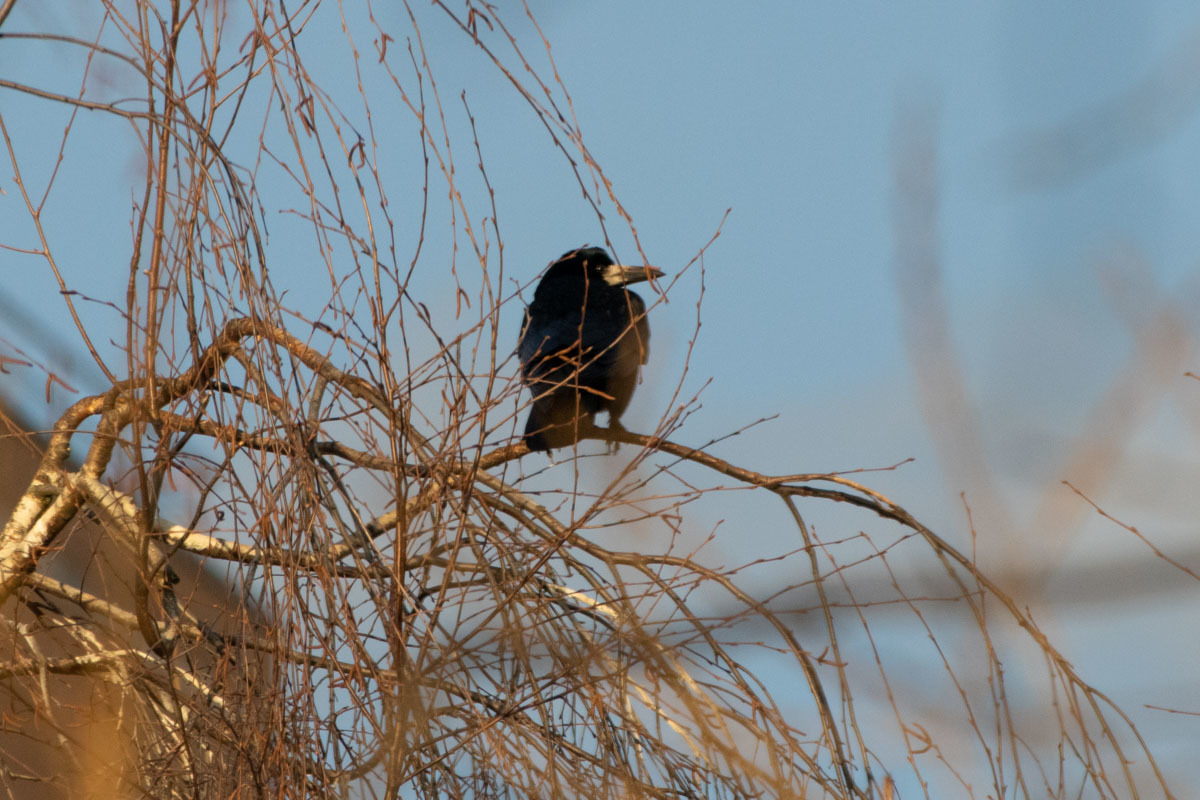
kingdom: Animalia
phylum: Chordata
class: Aves
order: Passeriformes
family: Corvidae
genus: Corvus
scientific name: Corvus frugilegus
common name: Rook
